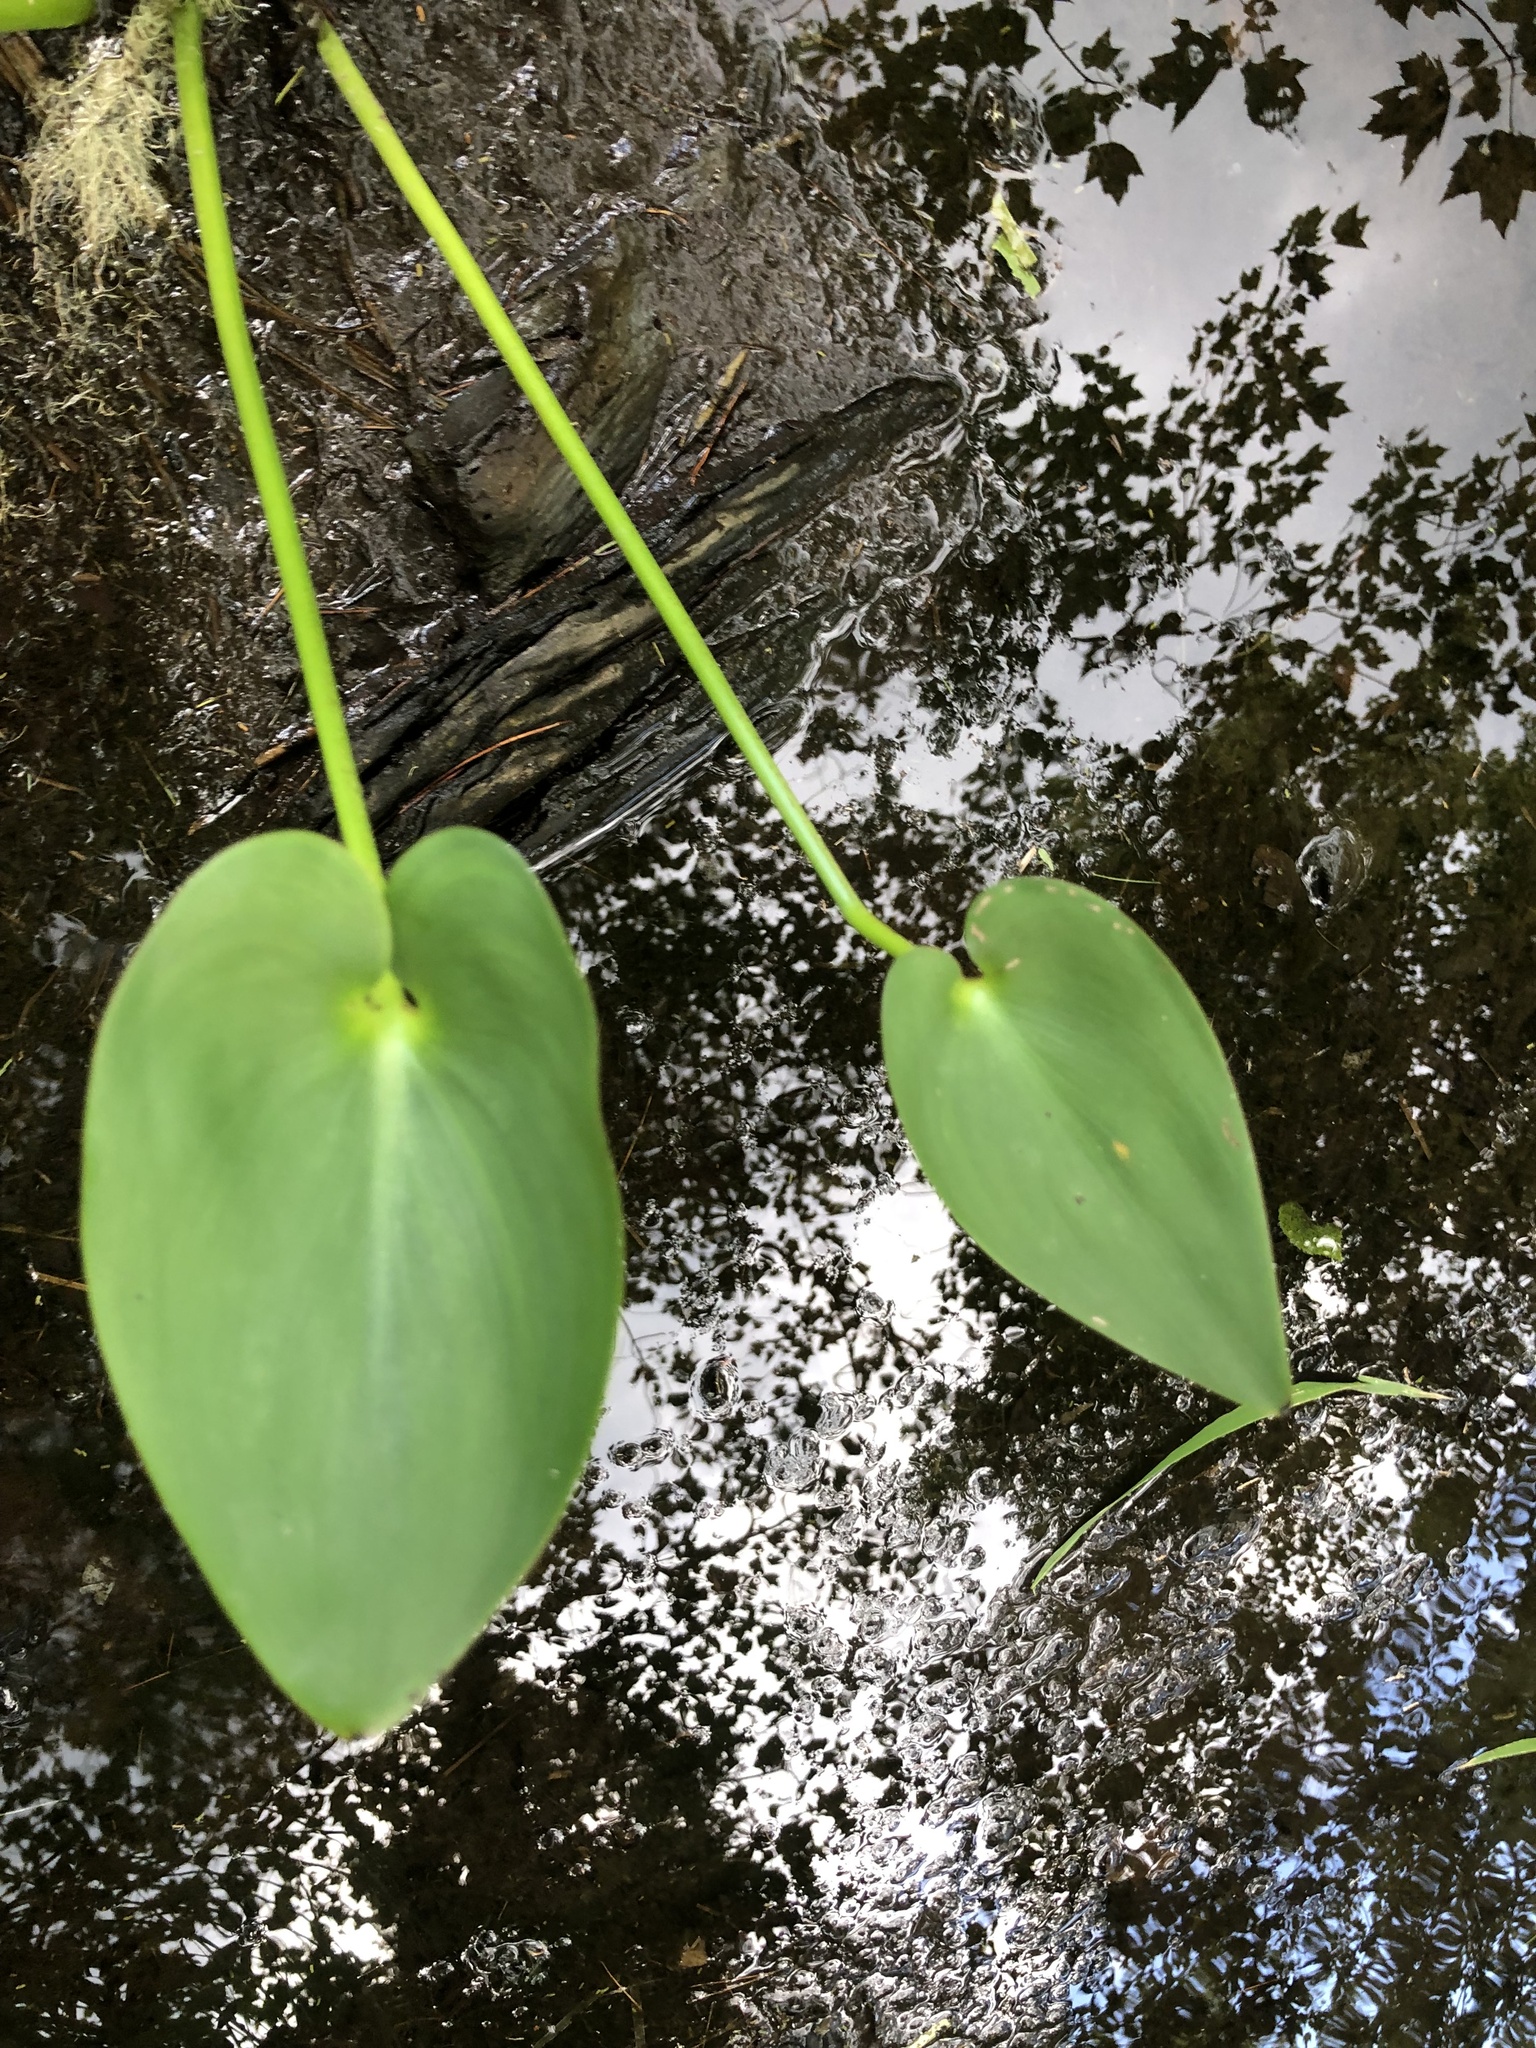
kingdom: Plantae
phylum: Tracheophyta
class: Liliopsida
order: Commelinales
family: Pontederiaceae
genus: Pontederia
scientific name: Pontederia cordata
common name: Pickerelweed
